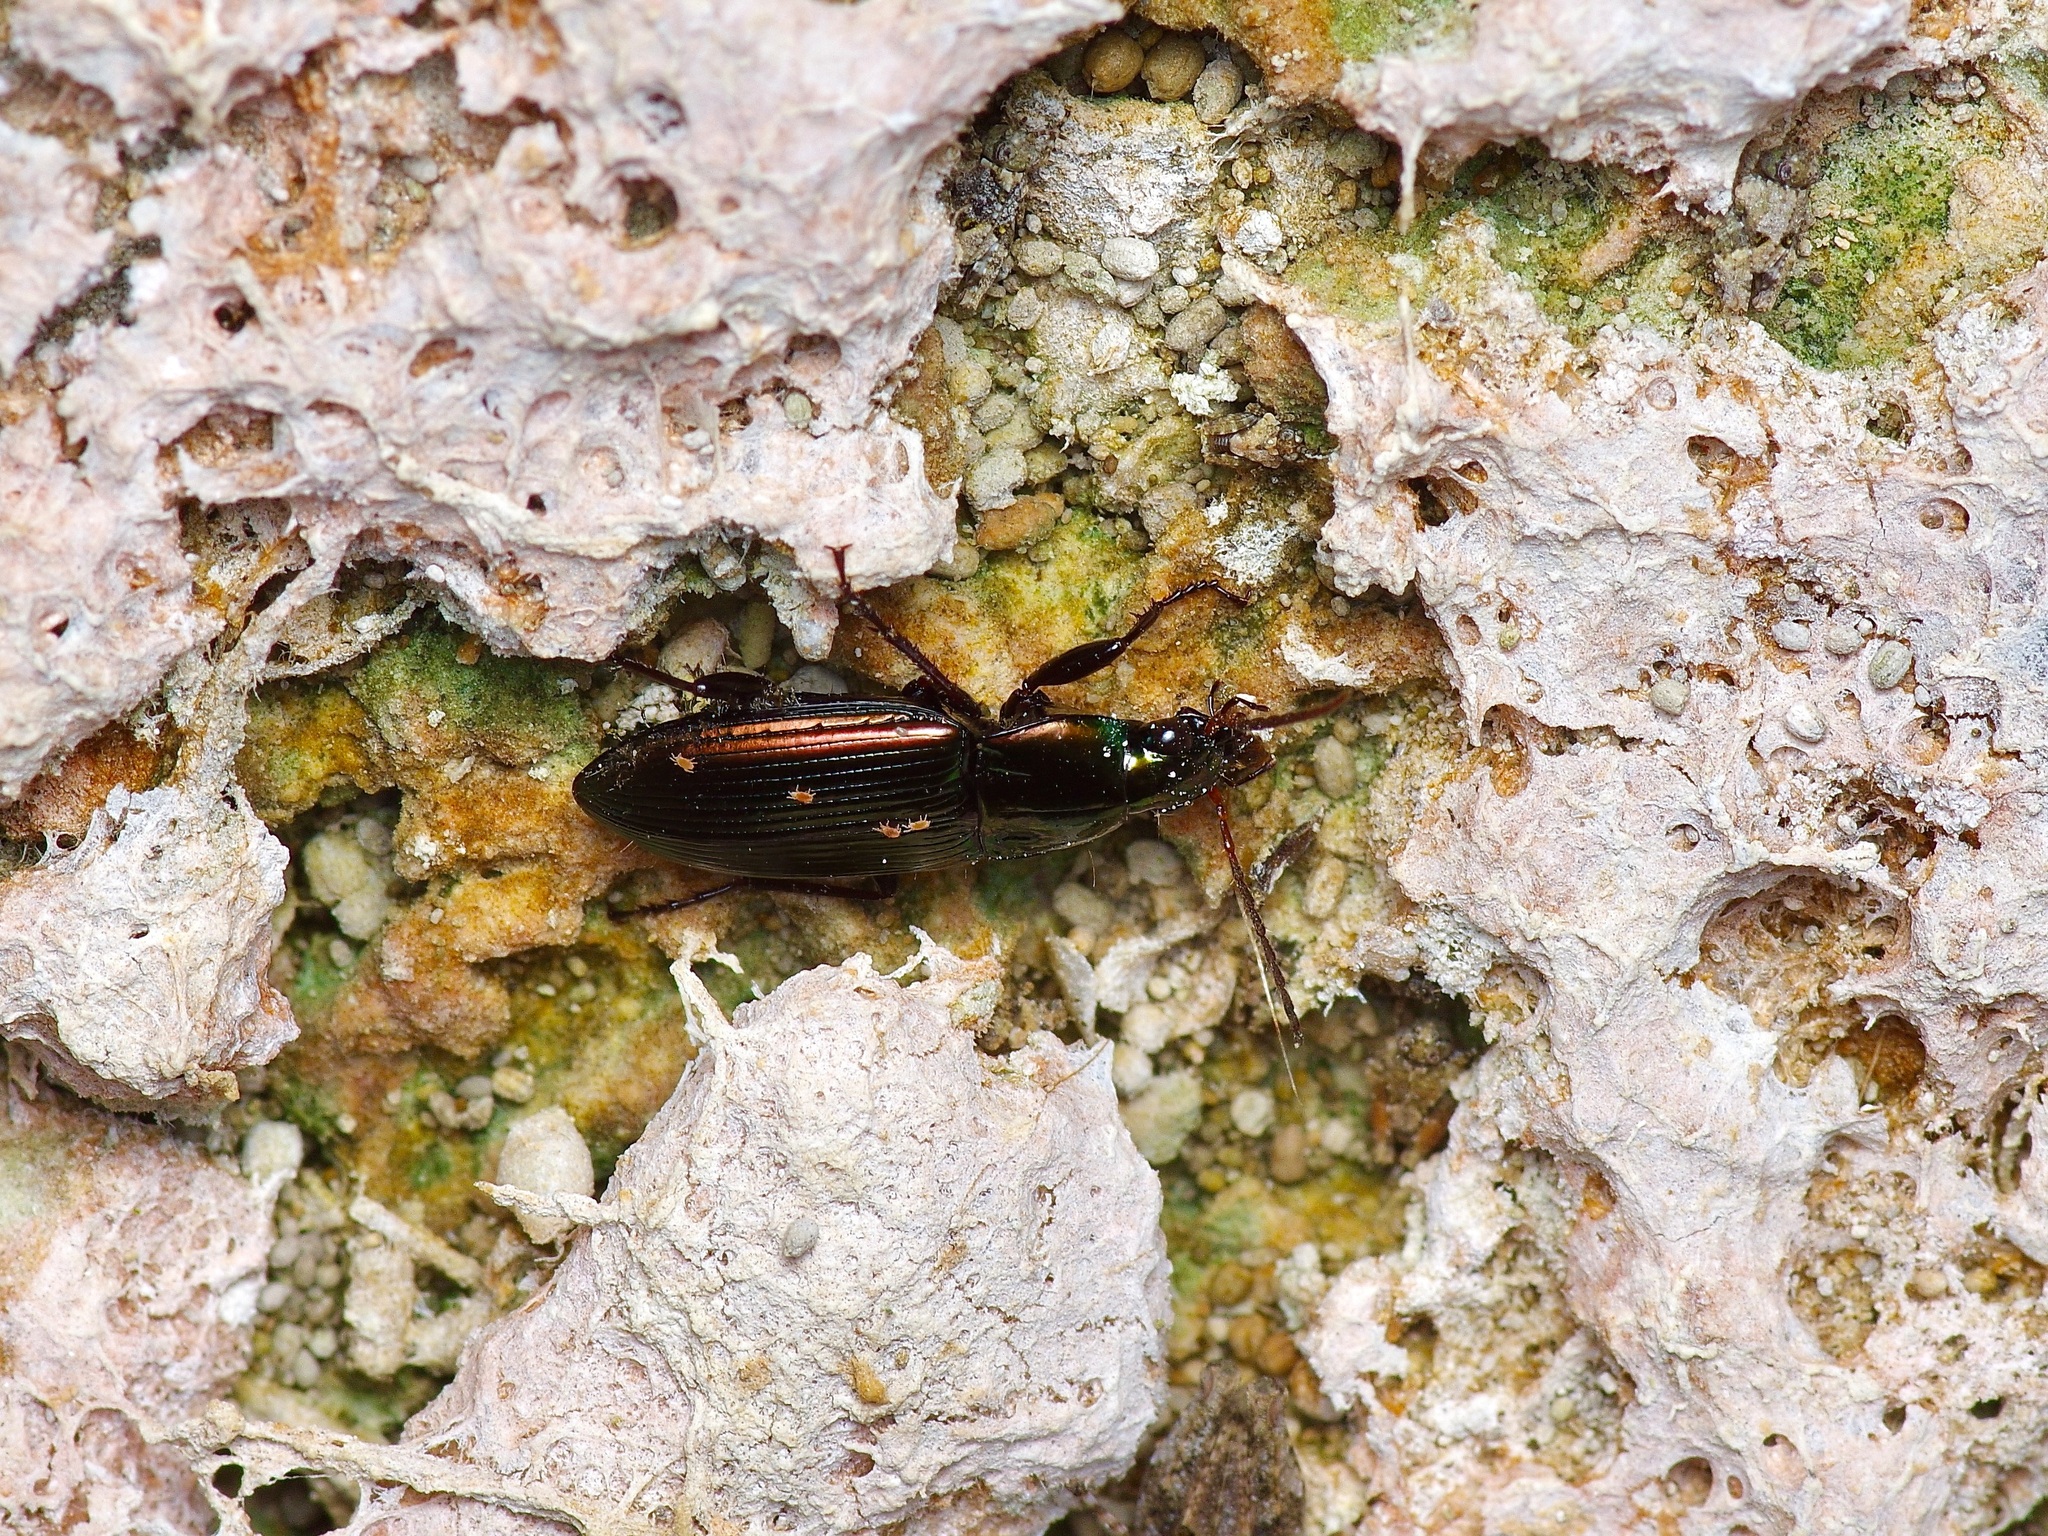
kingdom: Animalia
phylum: Arthropoda
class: Insecta
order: Coleoptera
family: Carabidae
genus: Poecilus
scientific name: Poecilus chalcites
